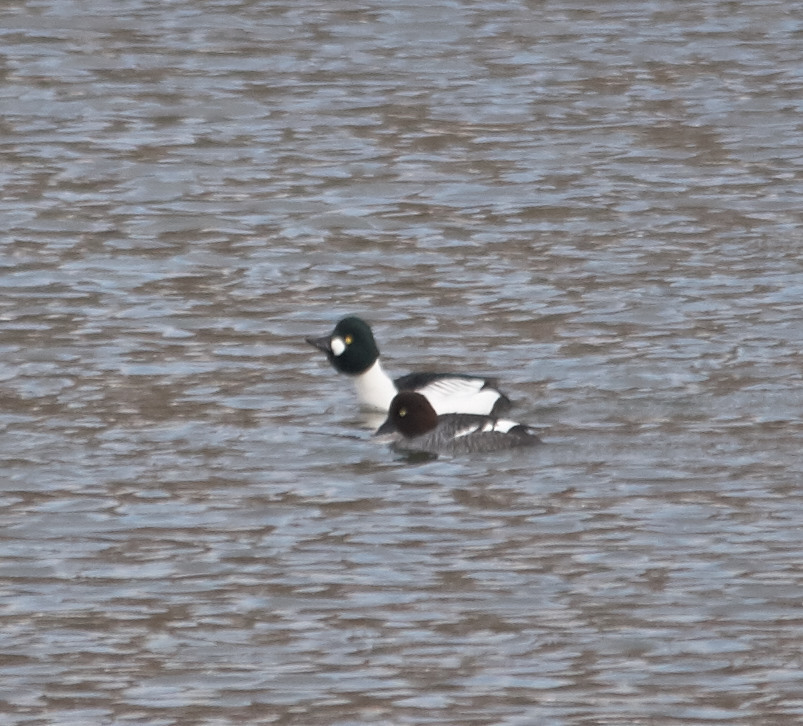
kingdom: Animalia
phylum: Chordata
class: Aves
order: Anseriformes
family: Anatidae
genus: Bucephala
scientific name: Bucephala clangula
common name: Common goldeneye
